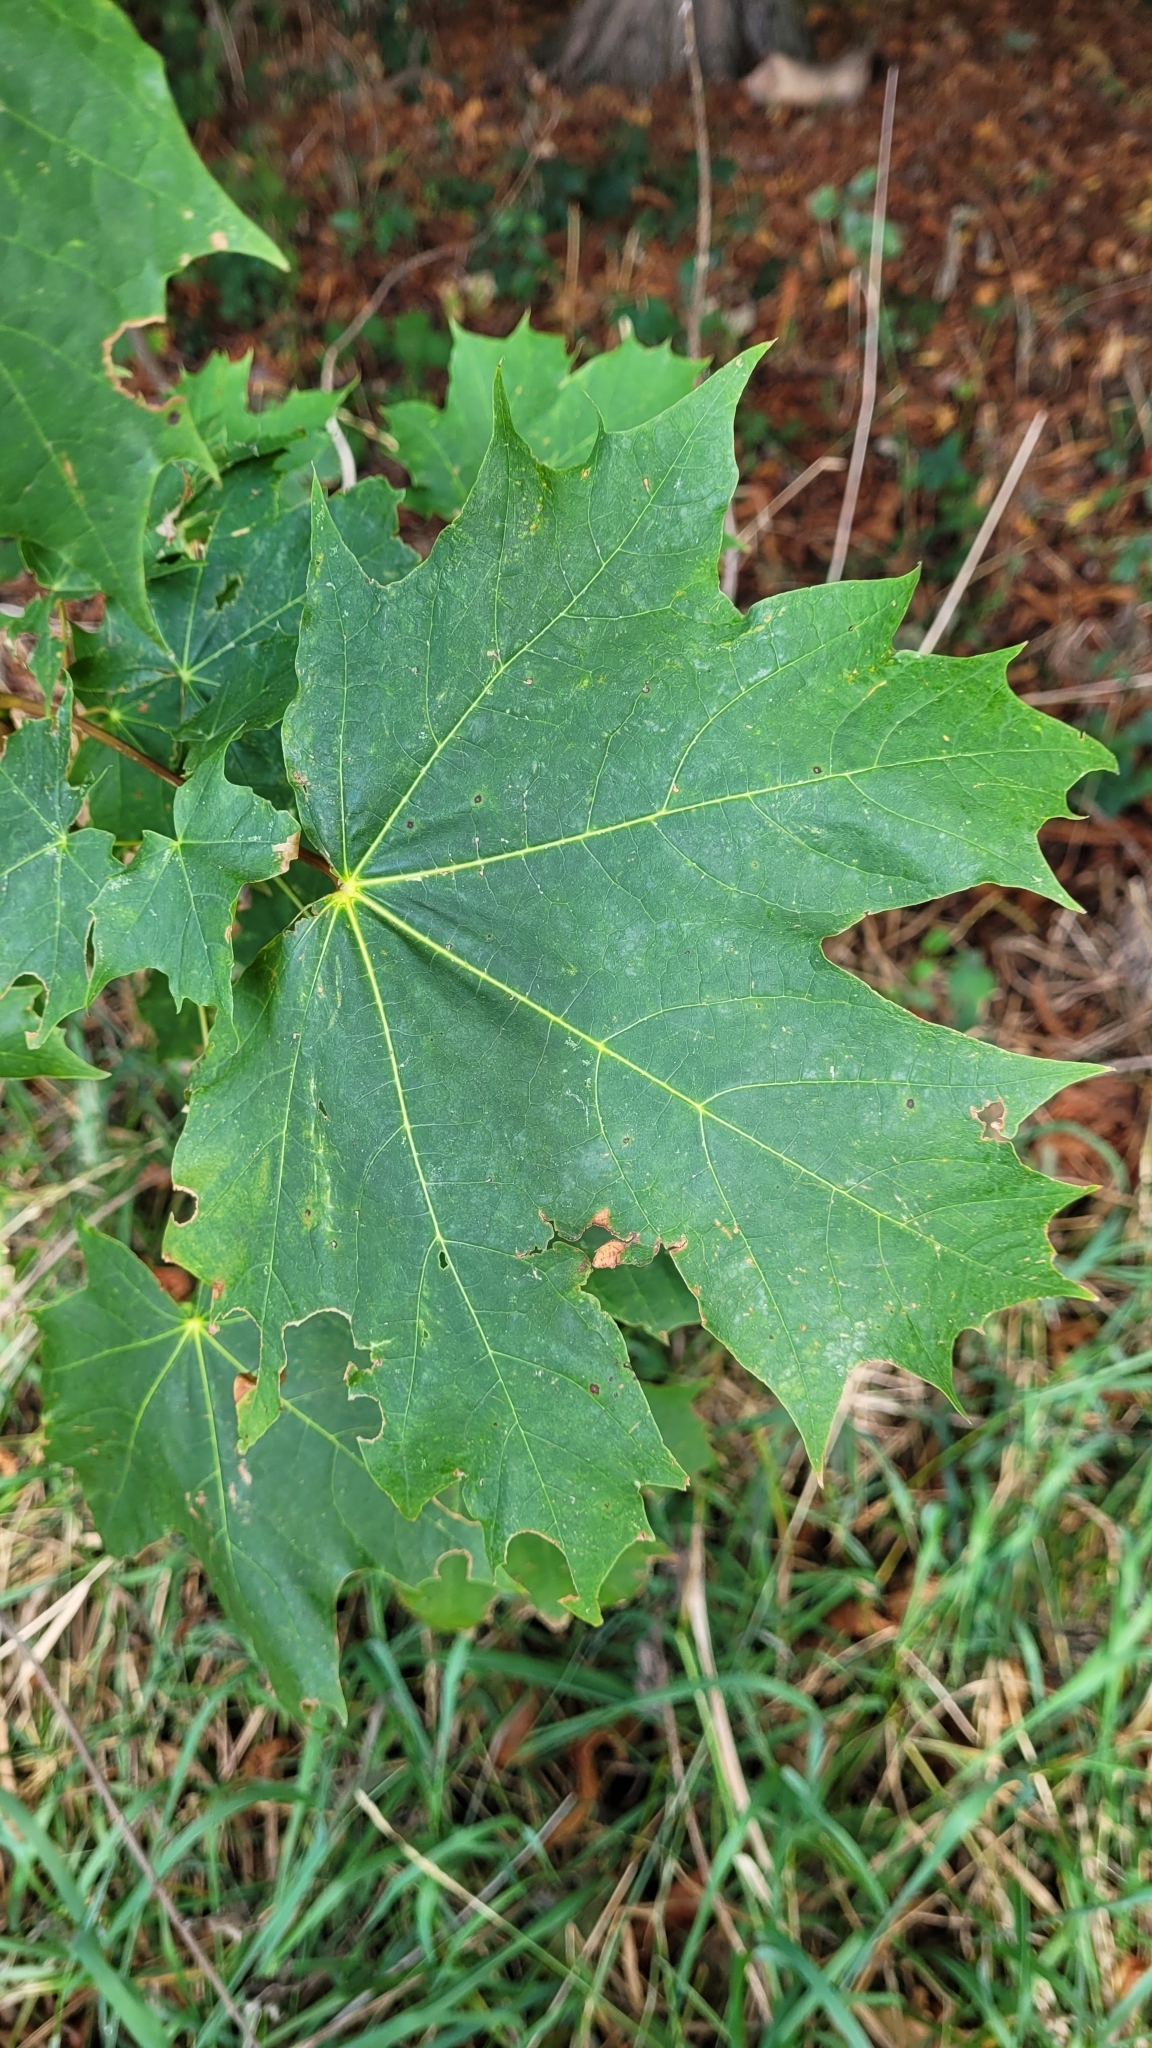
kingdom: Plantae
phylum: Tracheophyta
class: Magnoliopsida
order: Sapindales
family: Sapindaceae
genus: Acer
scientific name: Acer platanoides
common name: Norway maple
